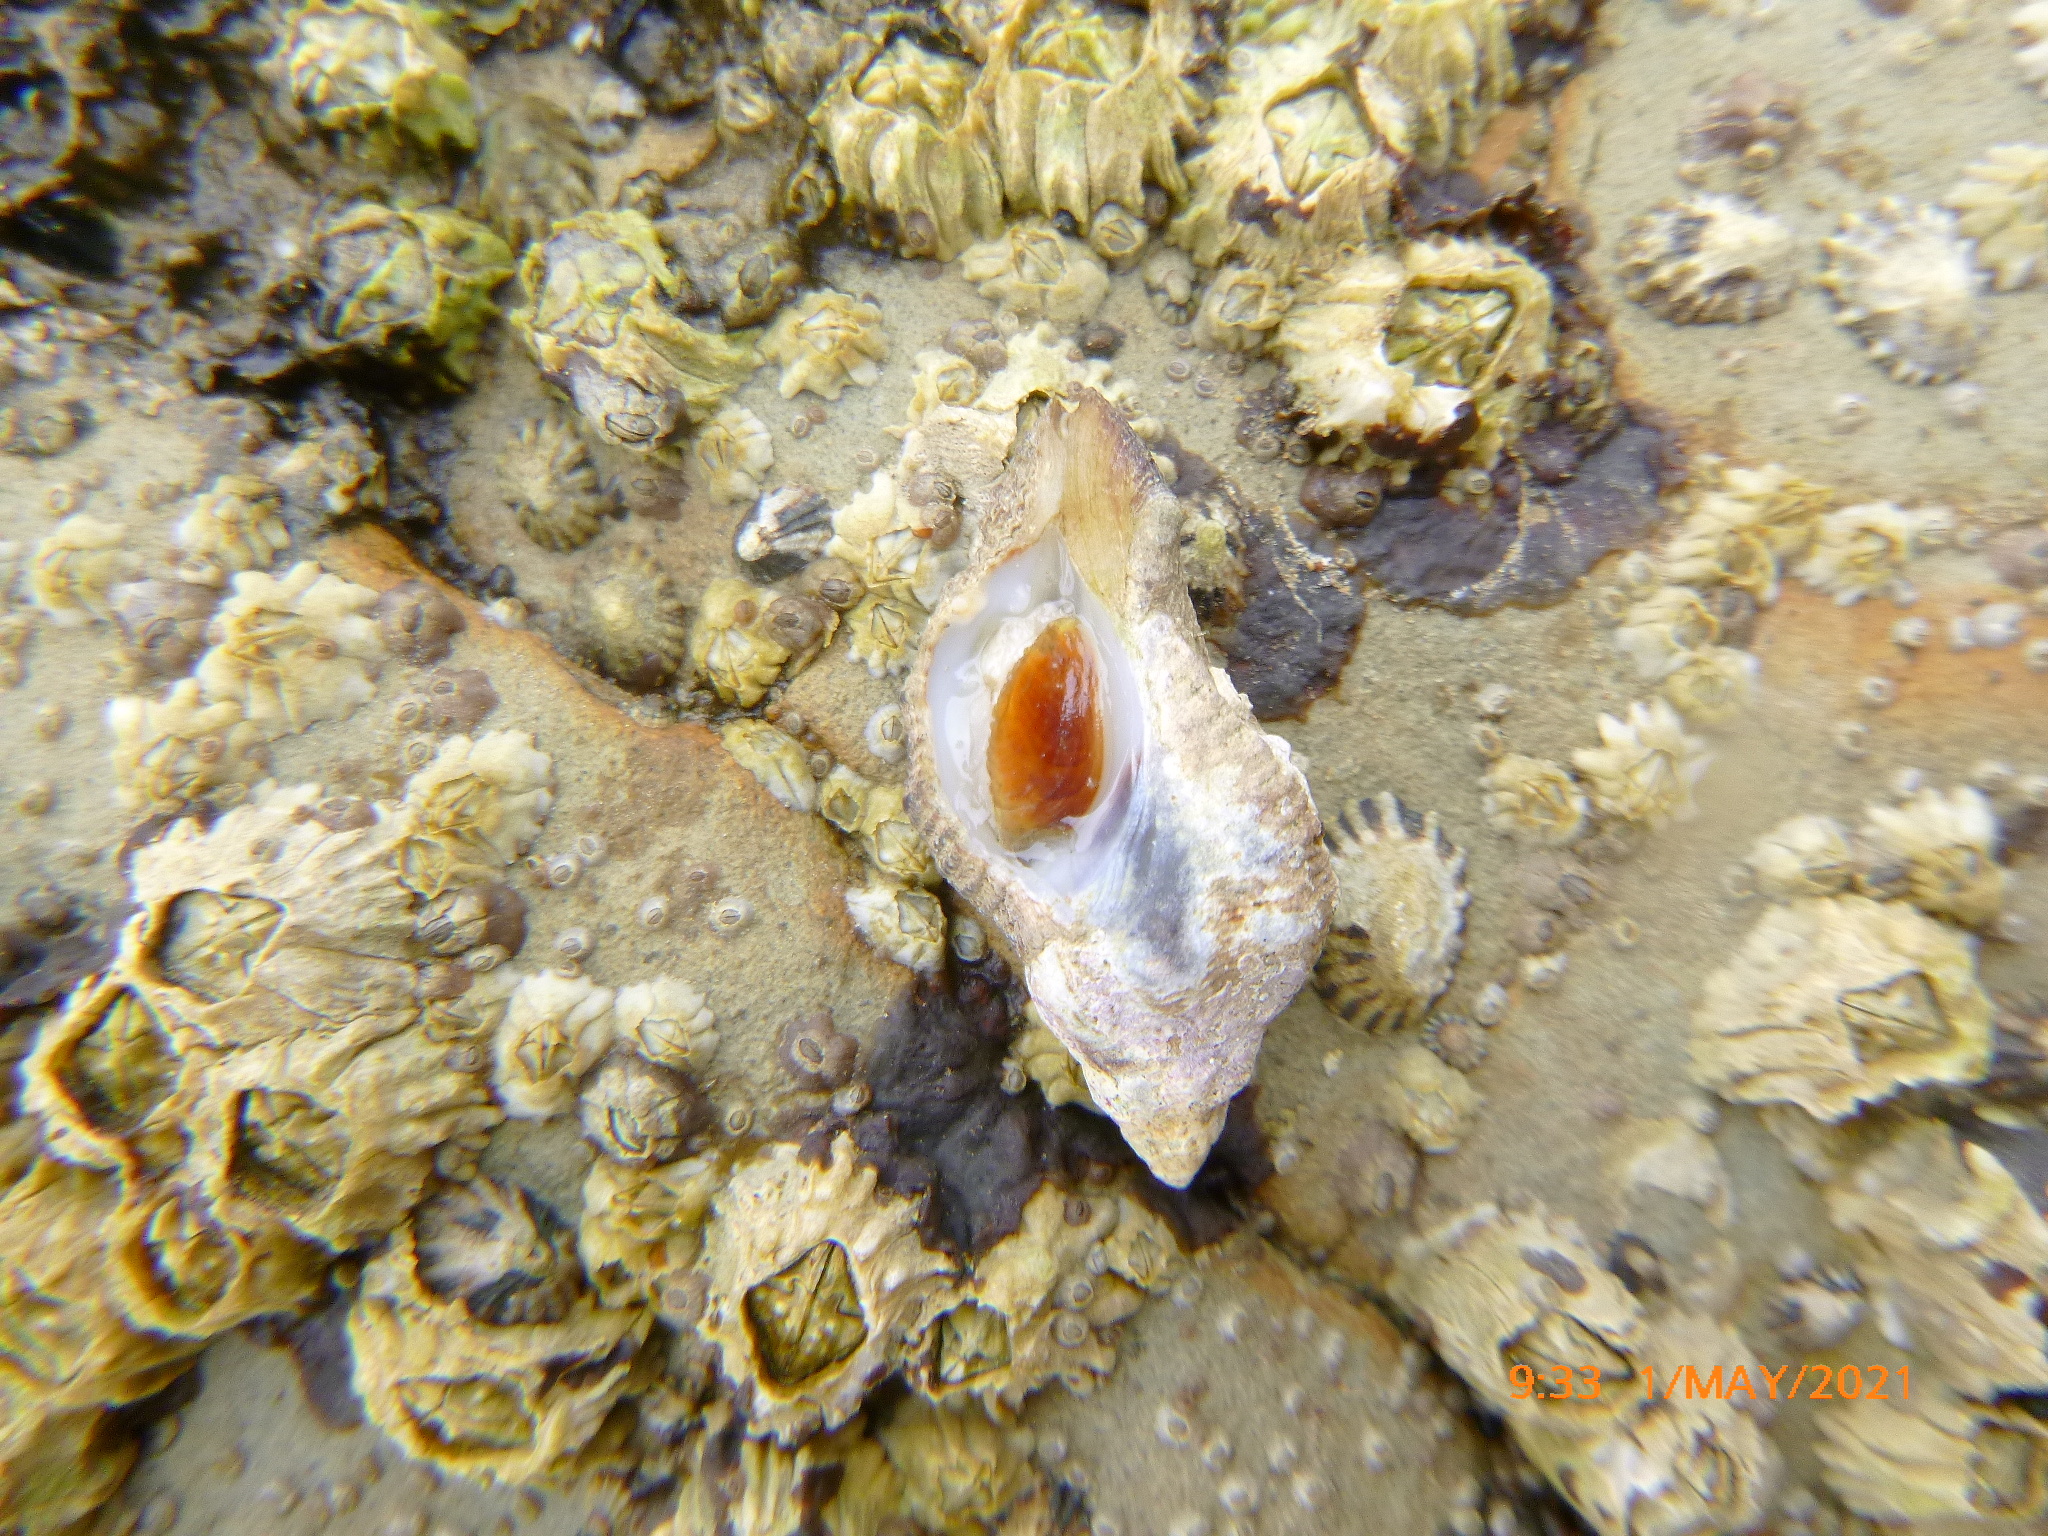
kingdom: Animalia
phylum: Mollusca
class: Gastropoda
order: Neogastropoda
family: Muricidae
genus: Pteropurpura
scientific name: Pteropurpura festiva
